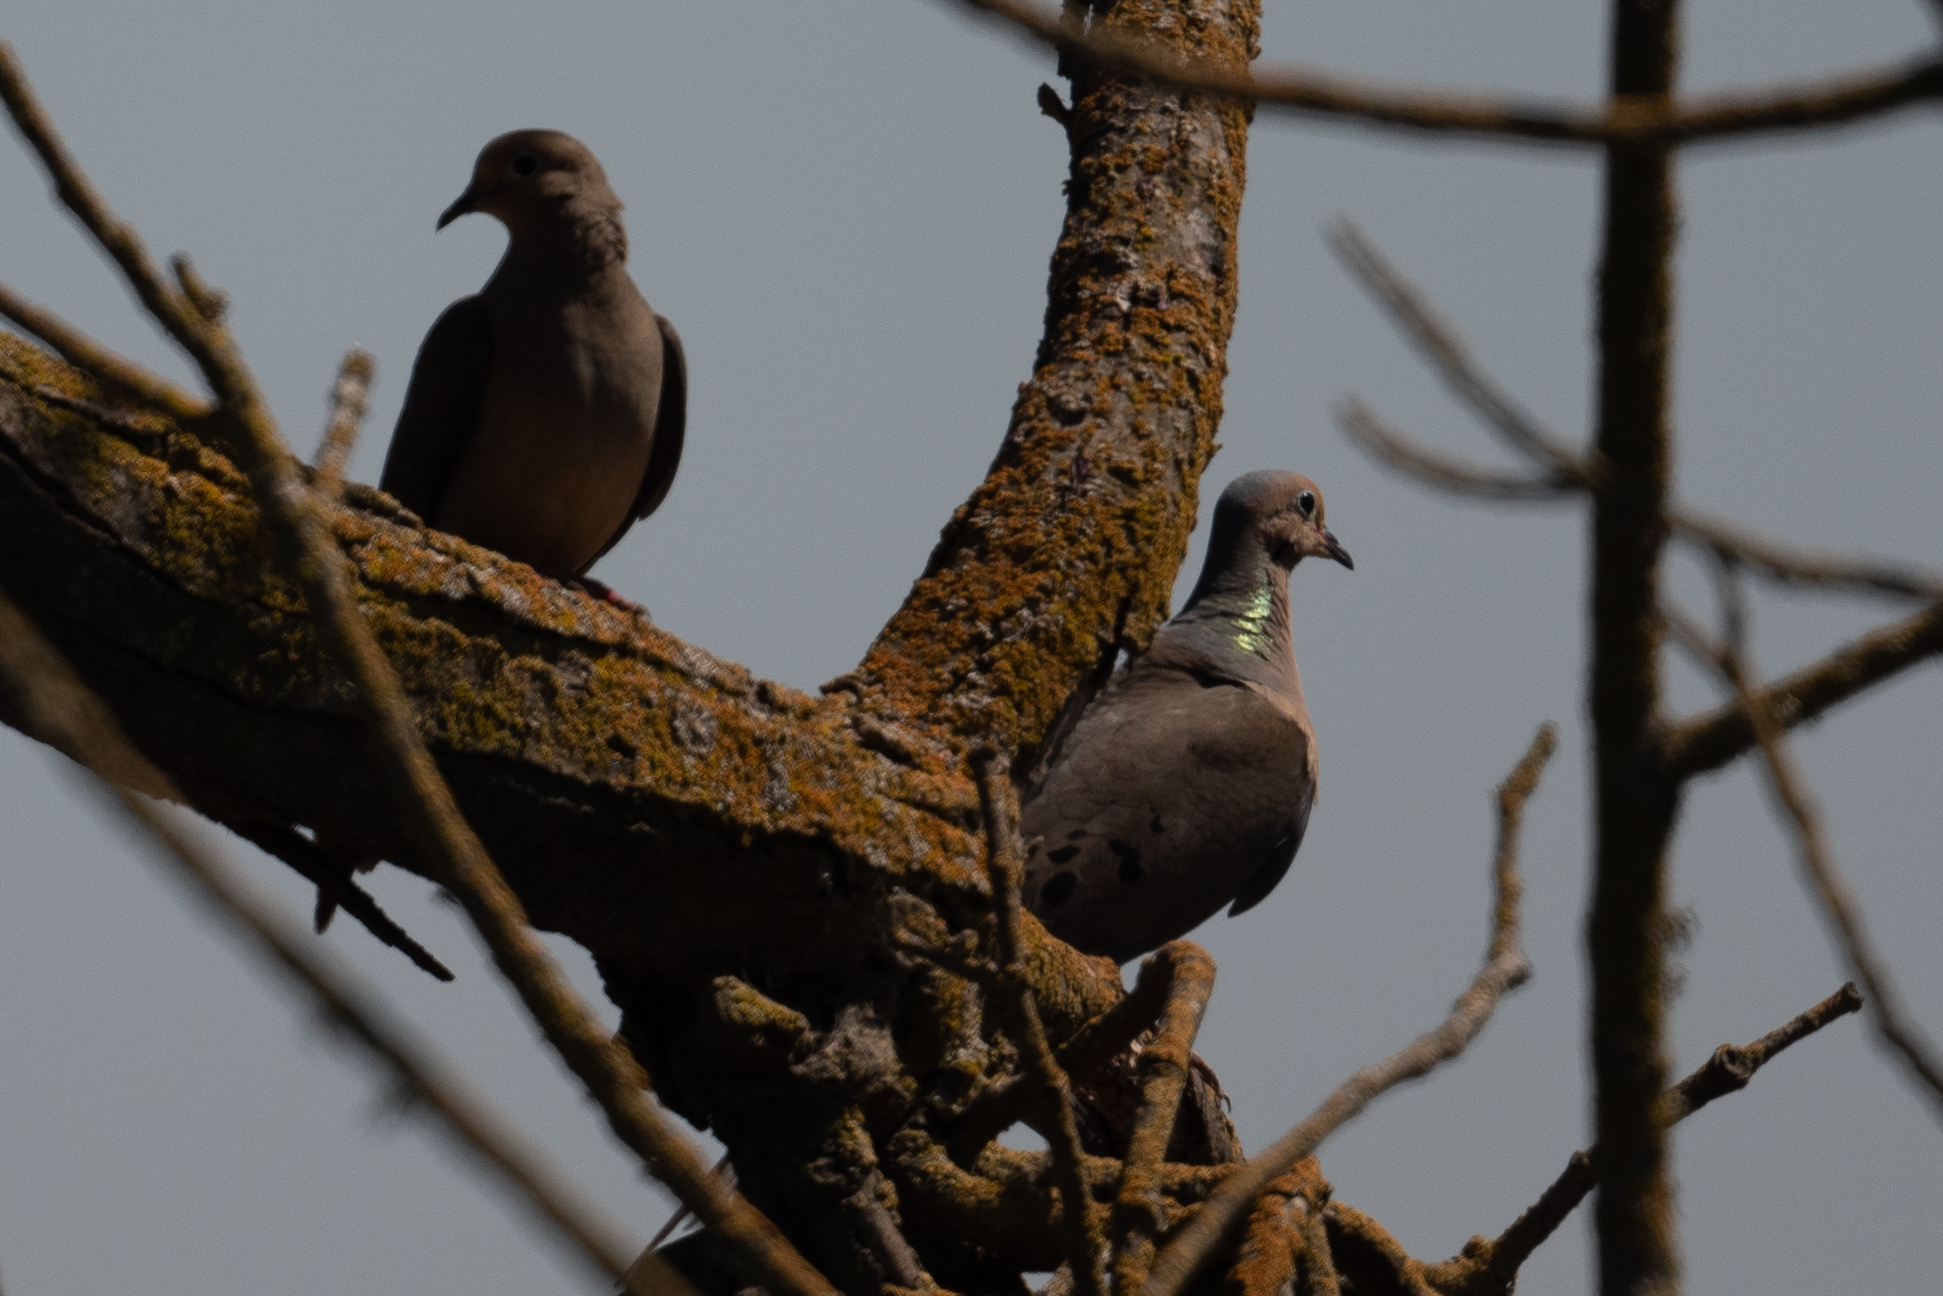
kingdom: Animalia
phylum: Chordata
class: Aves
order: Columbiformes
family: Columbidae
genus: Zenaida
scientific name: Zenaida macroura
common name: Mourning dove
